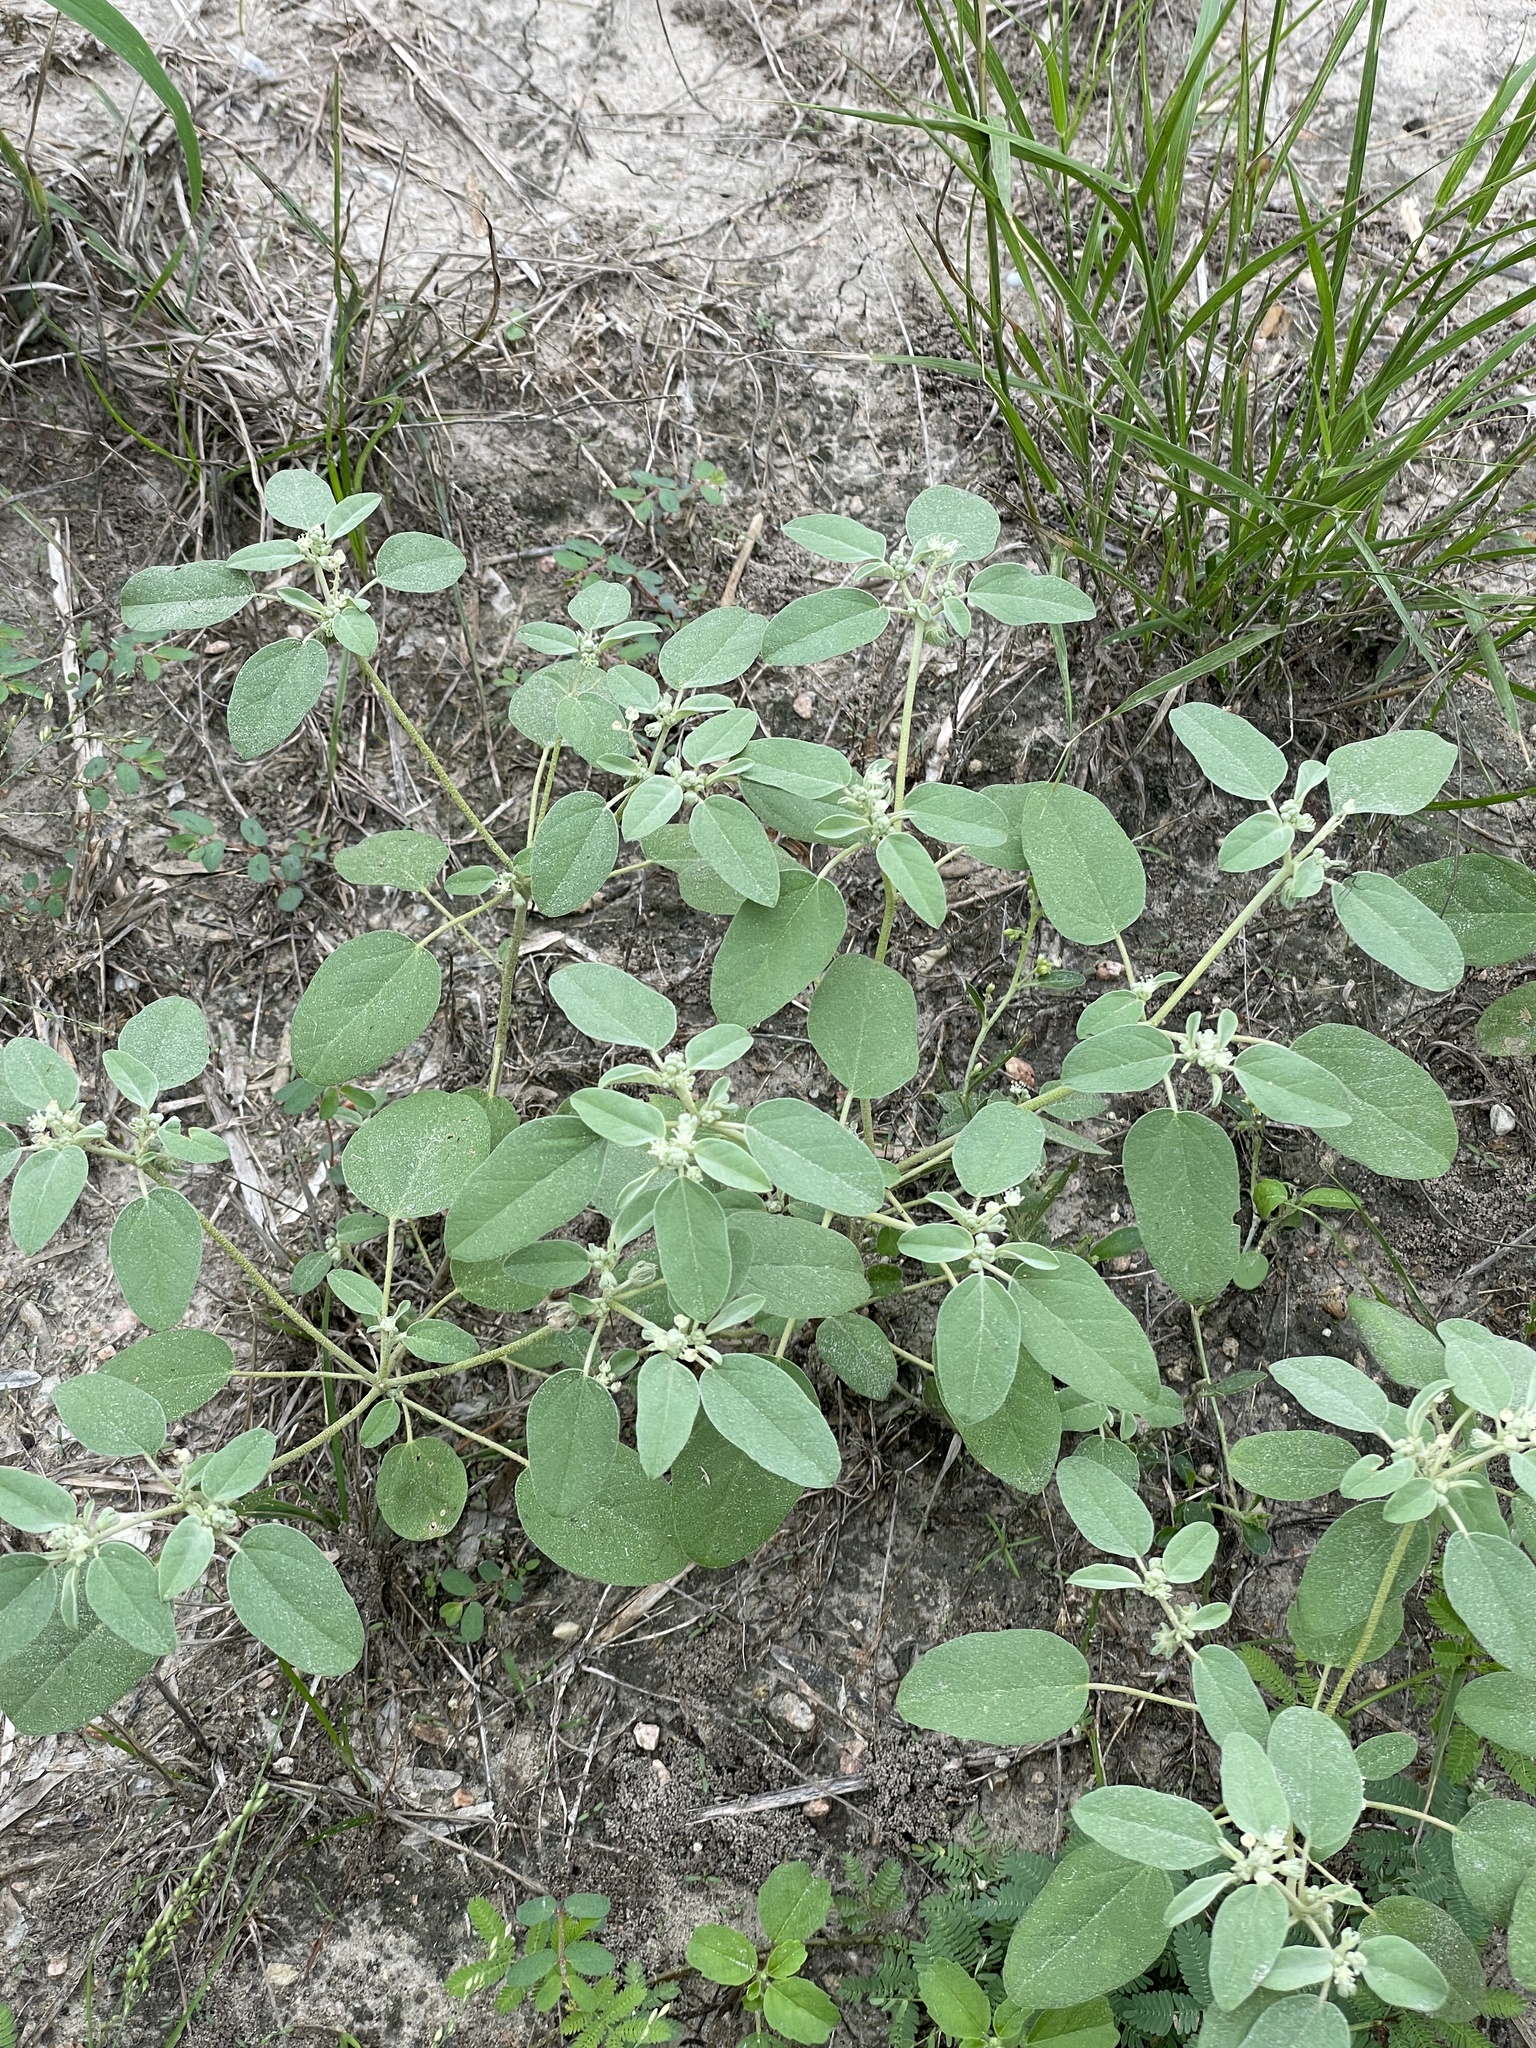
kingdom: Plantae
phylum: Tracheophyta
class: Magnoliopsida
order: Malpighiales
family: Euphorbiaceae
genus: Croton
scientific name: Croton monanthogynus
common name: One-seed croton
